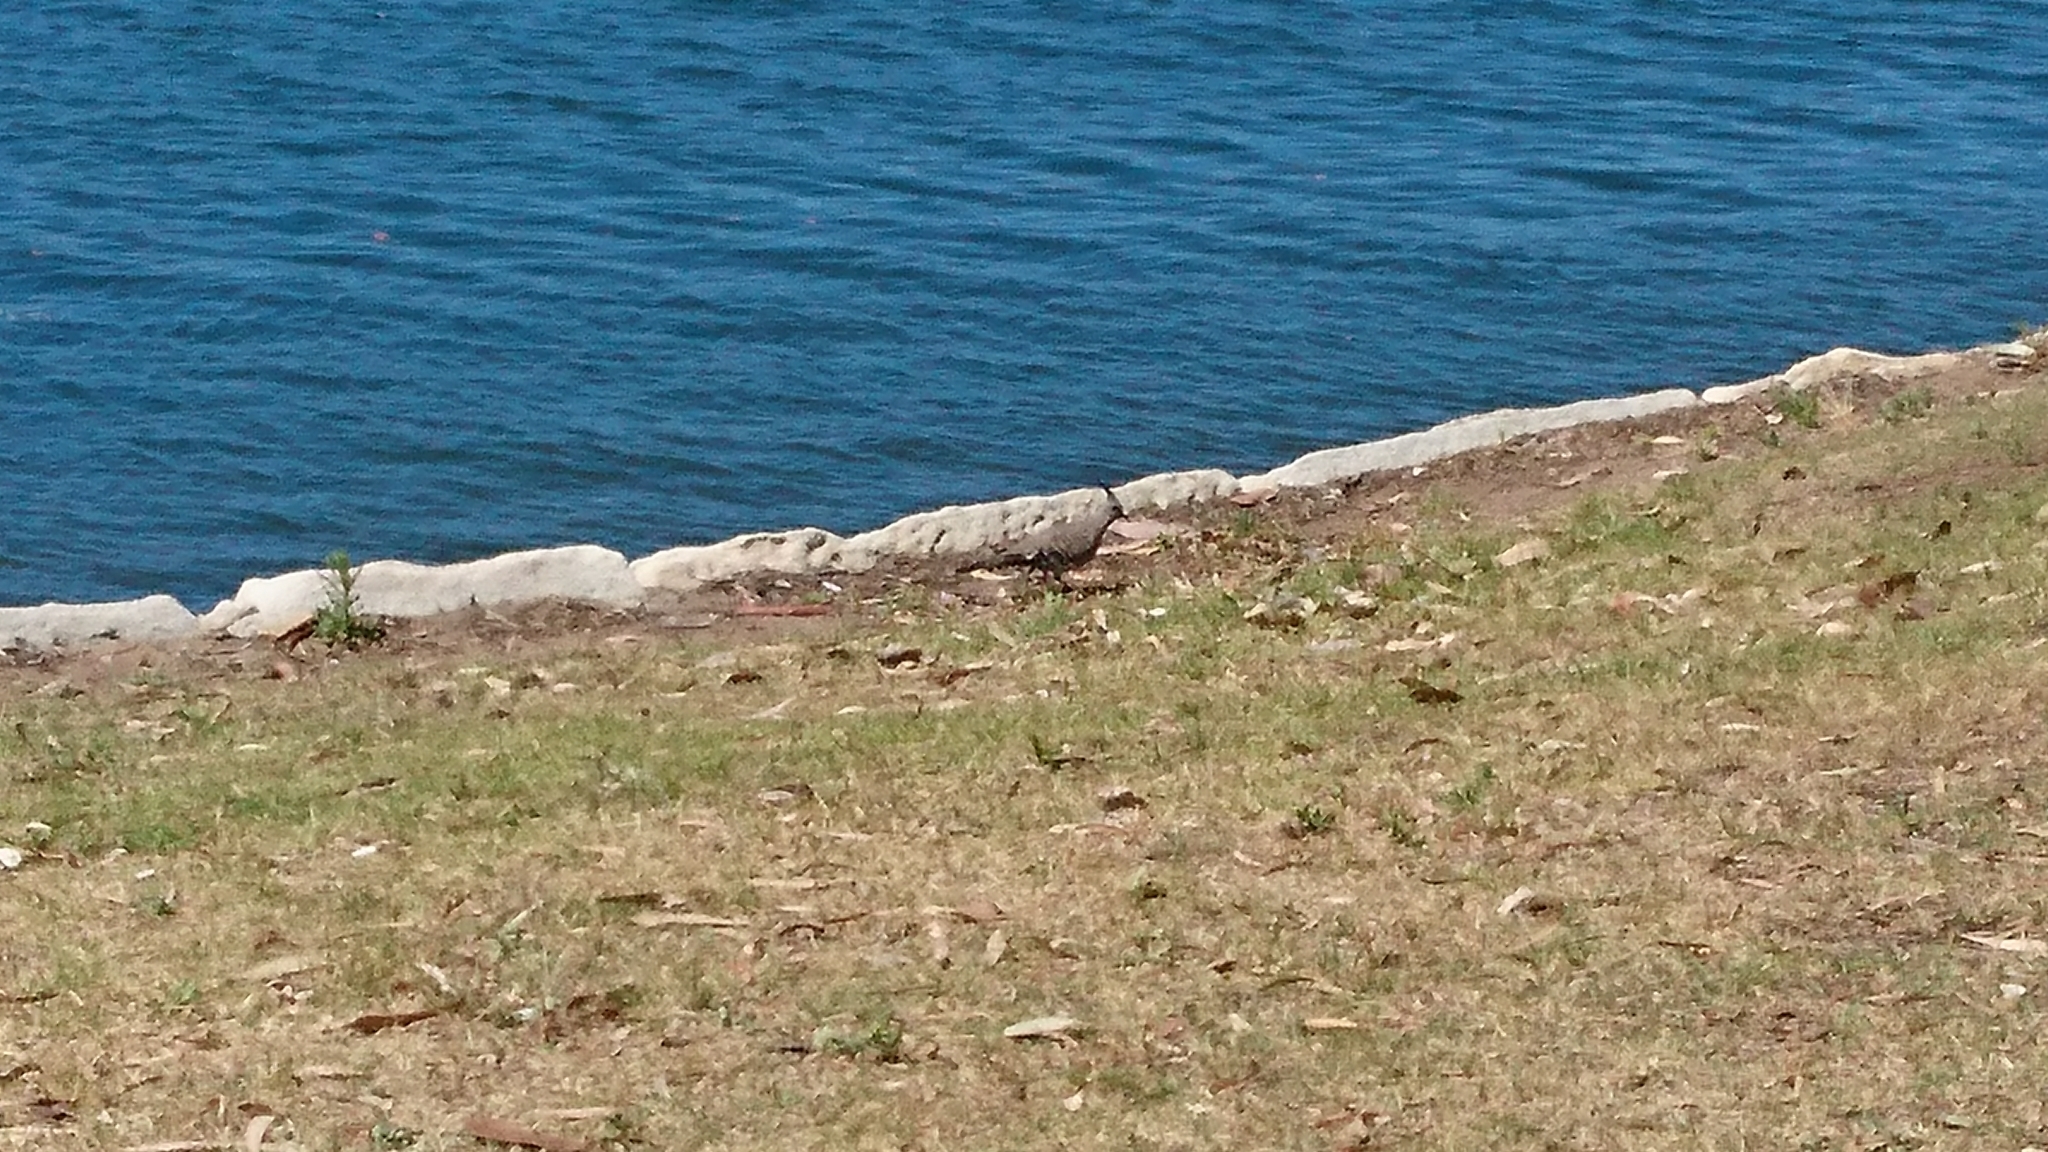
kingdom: Animalia
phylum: Chordata
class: Aves
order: Columbiformes
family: Columbidae
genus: Ocyphaps
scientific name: Ocyphaps lophotes
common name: Crested pigeon
